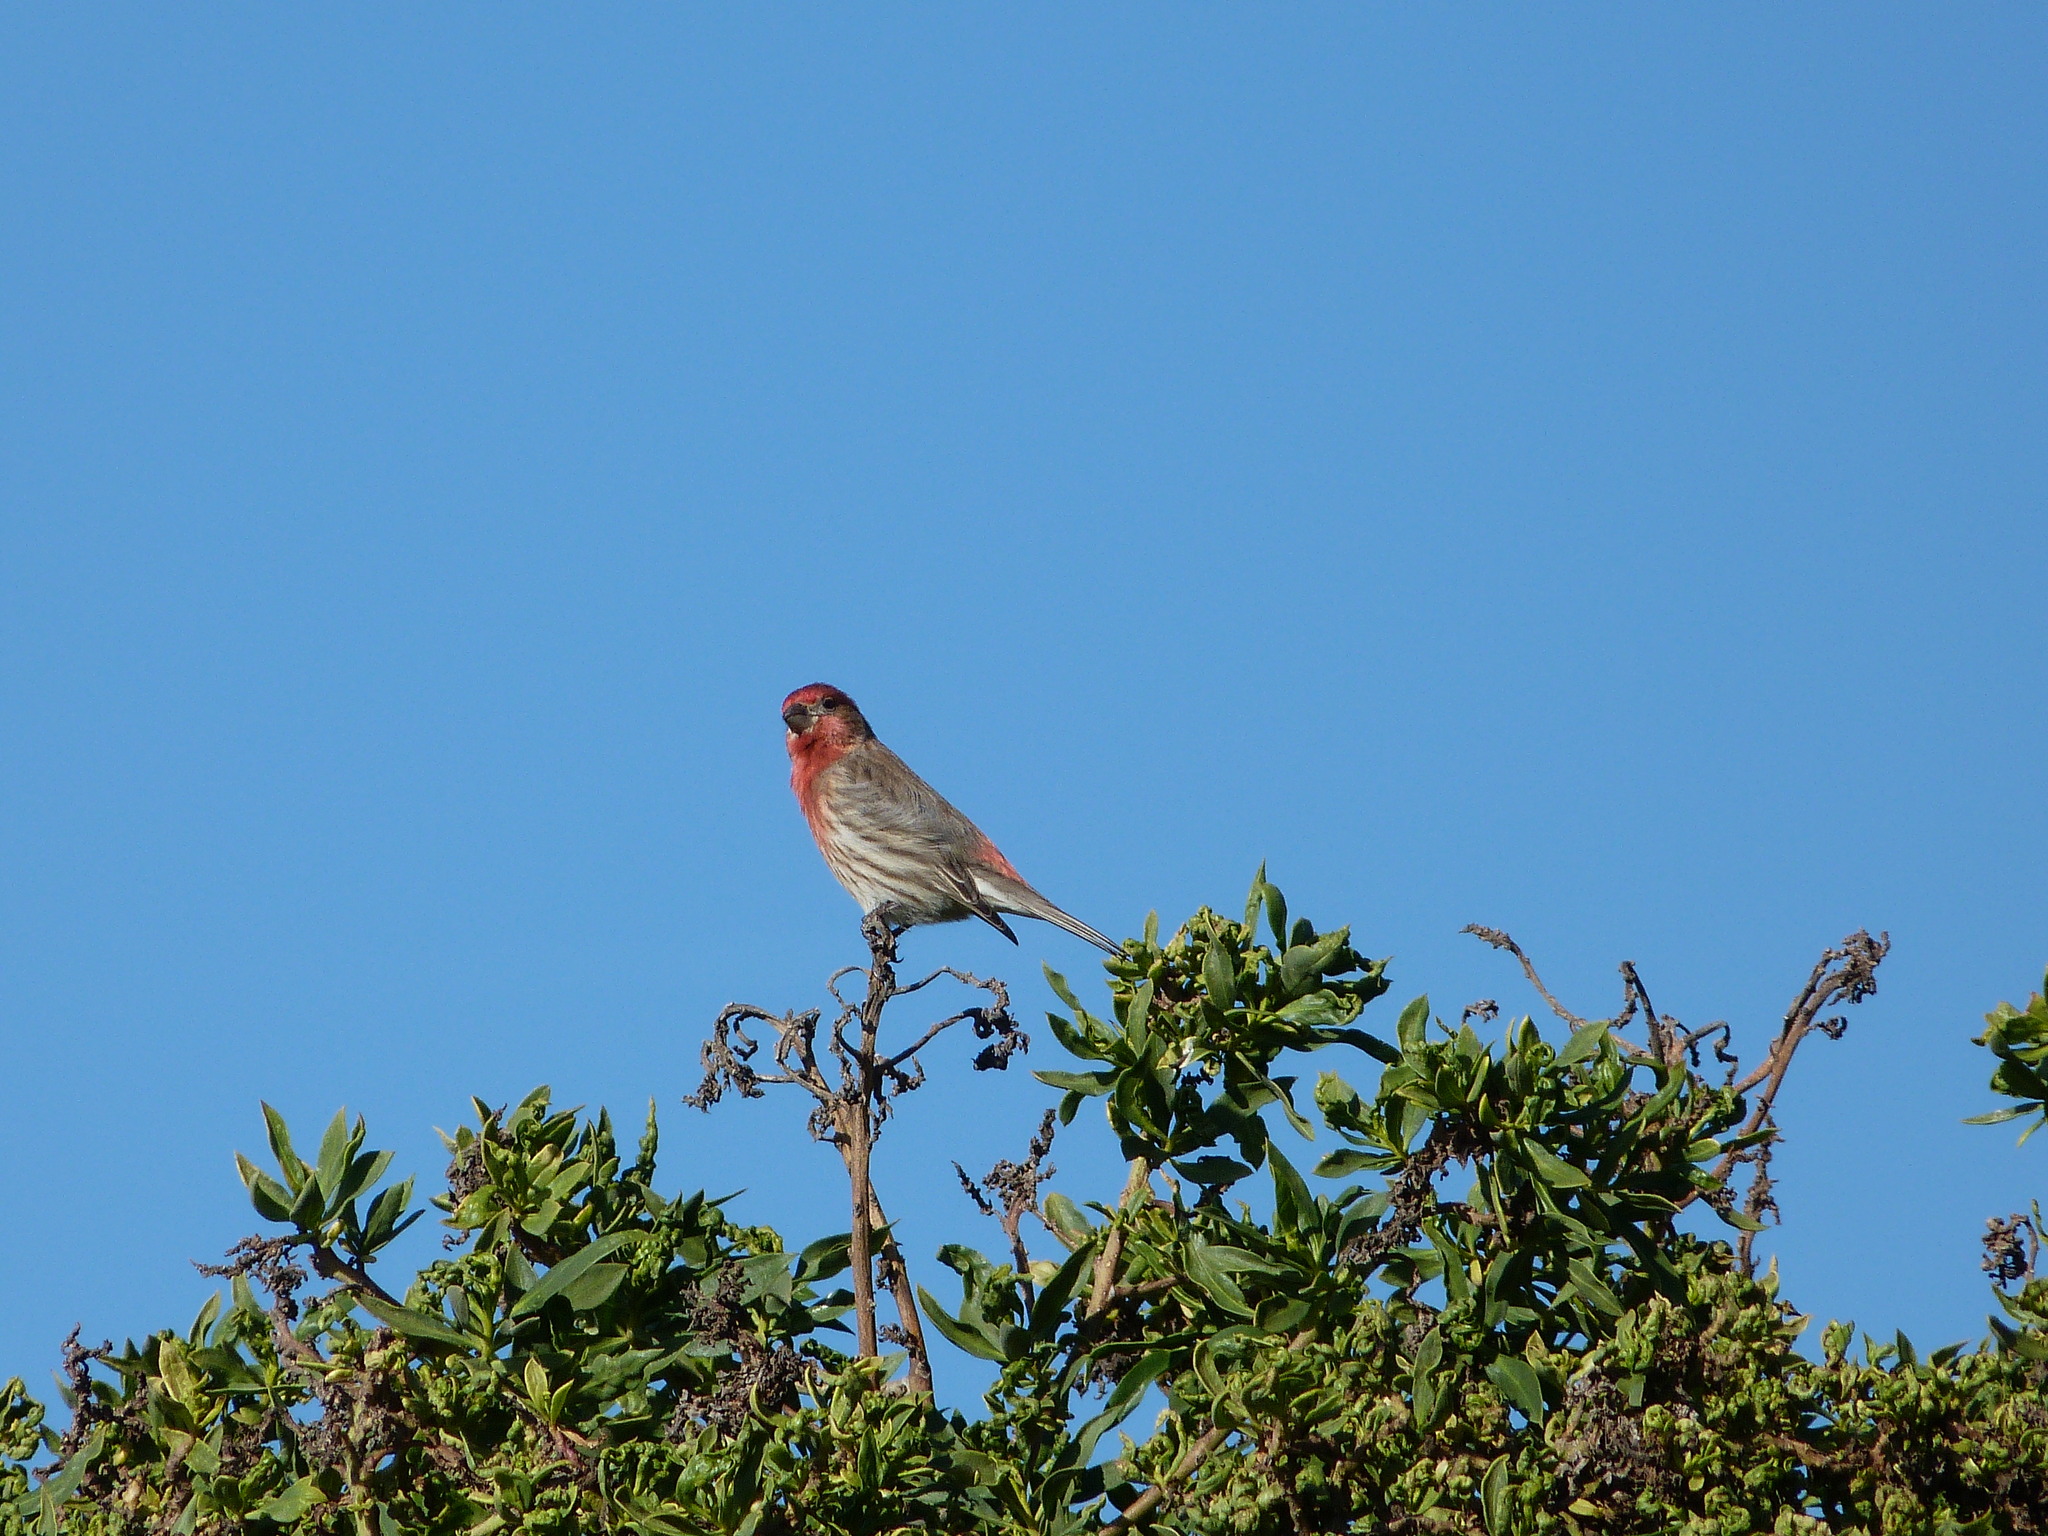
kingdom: Animalia
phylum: Chordata
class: Aves
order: Passeriformes
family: Fringillidae
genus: Haemorhous
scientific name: Haemorhous mexicanus
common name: House finch
